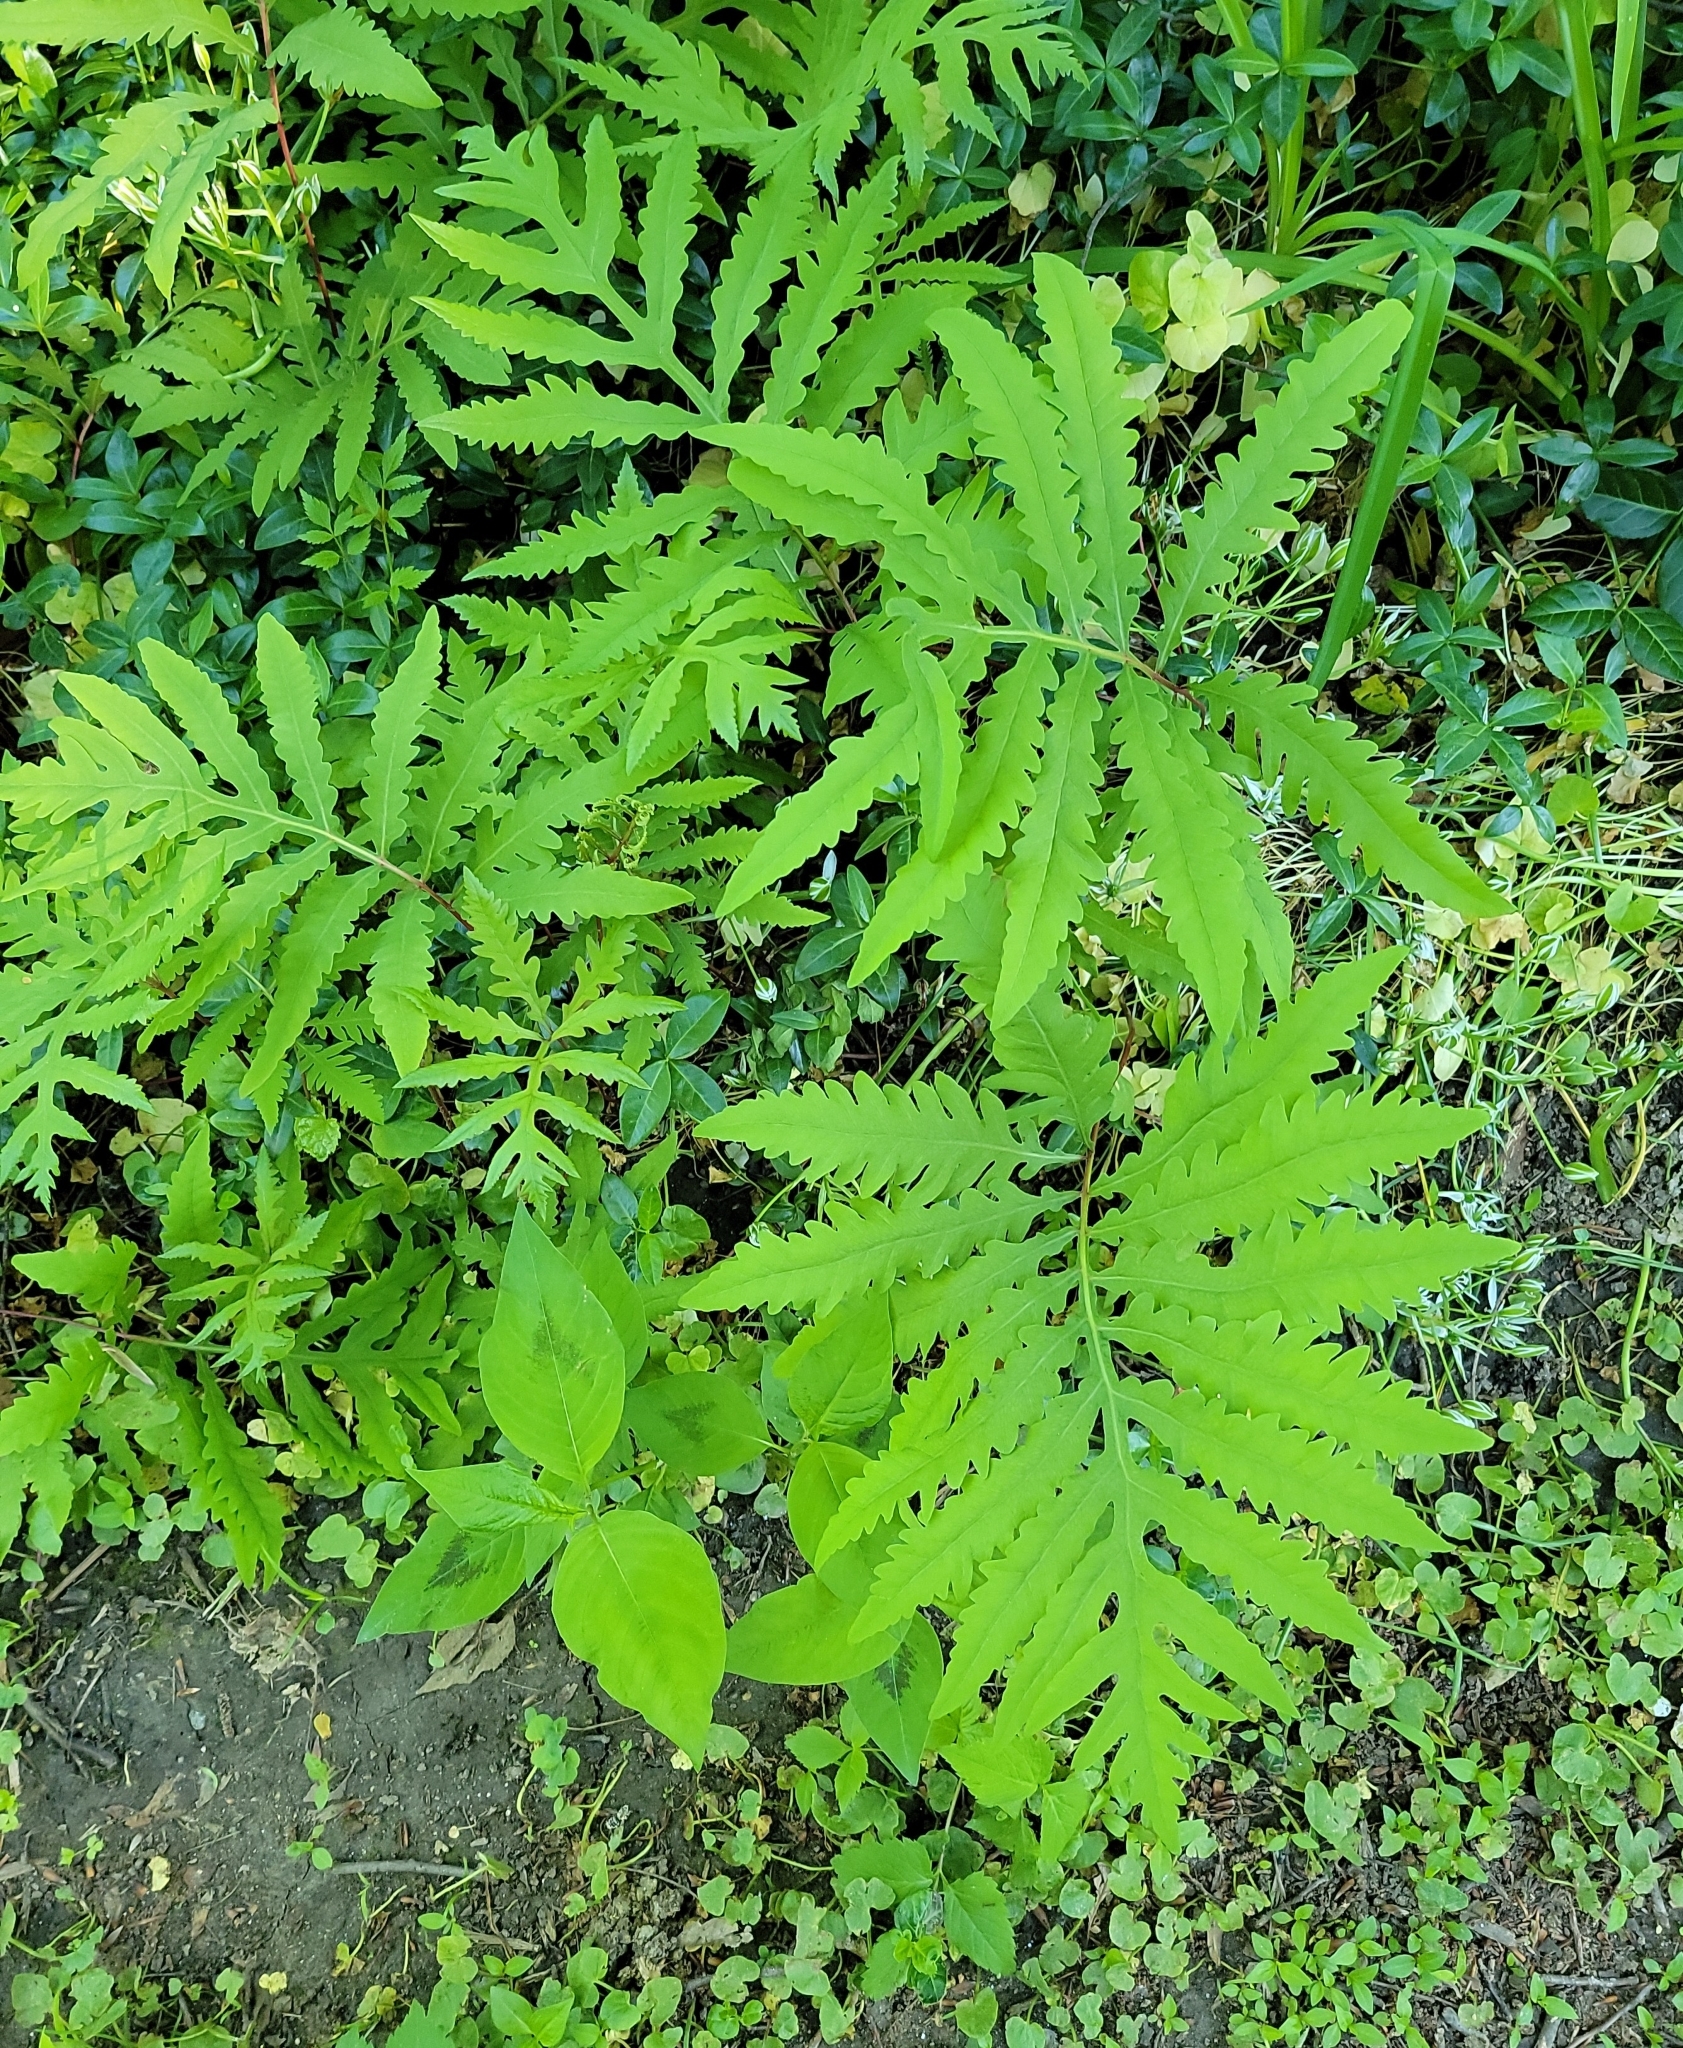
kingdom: Plantae
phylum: Tracheophyta
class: Polypodiopsida
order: Polypodiales
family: Onocleaceae
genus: Onoclea
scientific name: Onoclea sensibilis
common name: Sensitive fern
